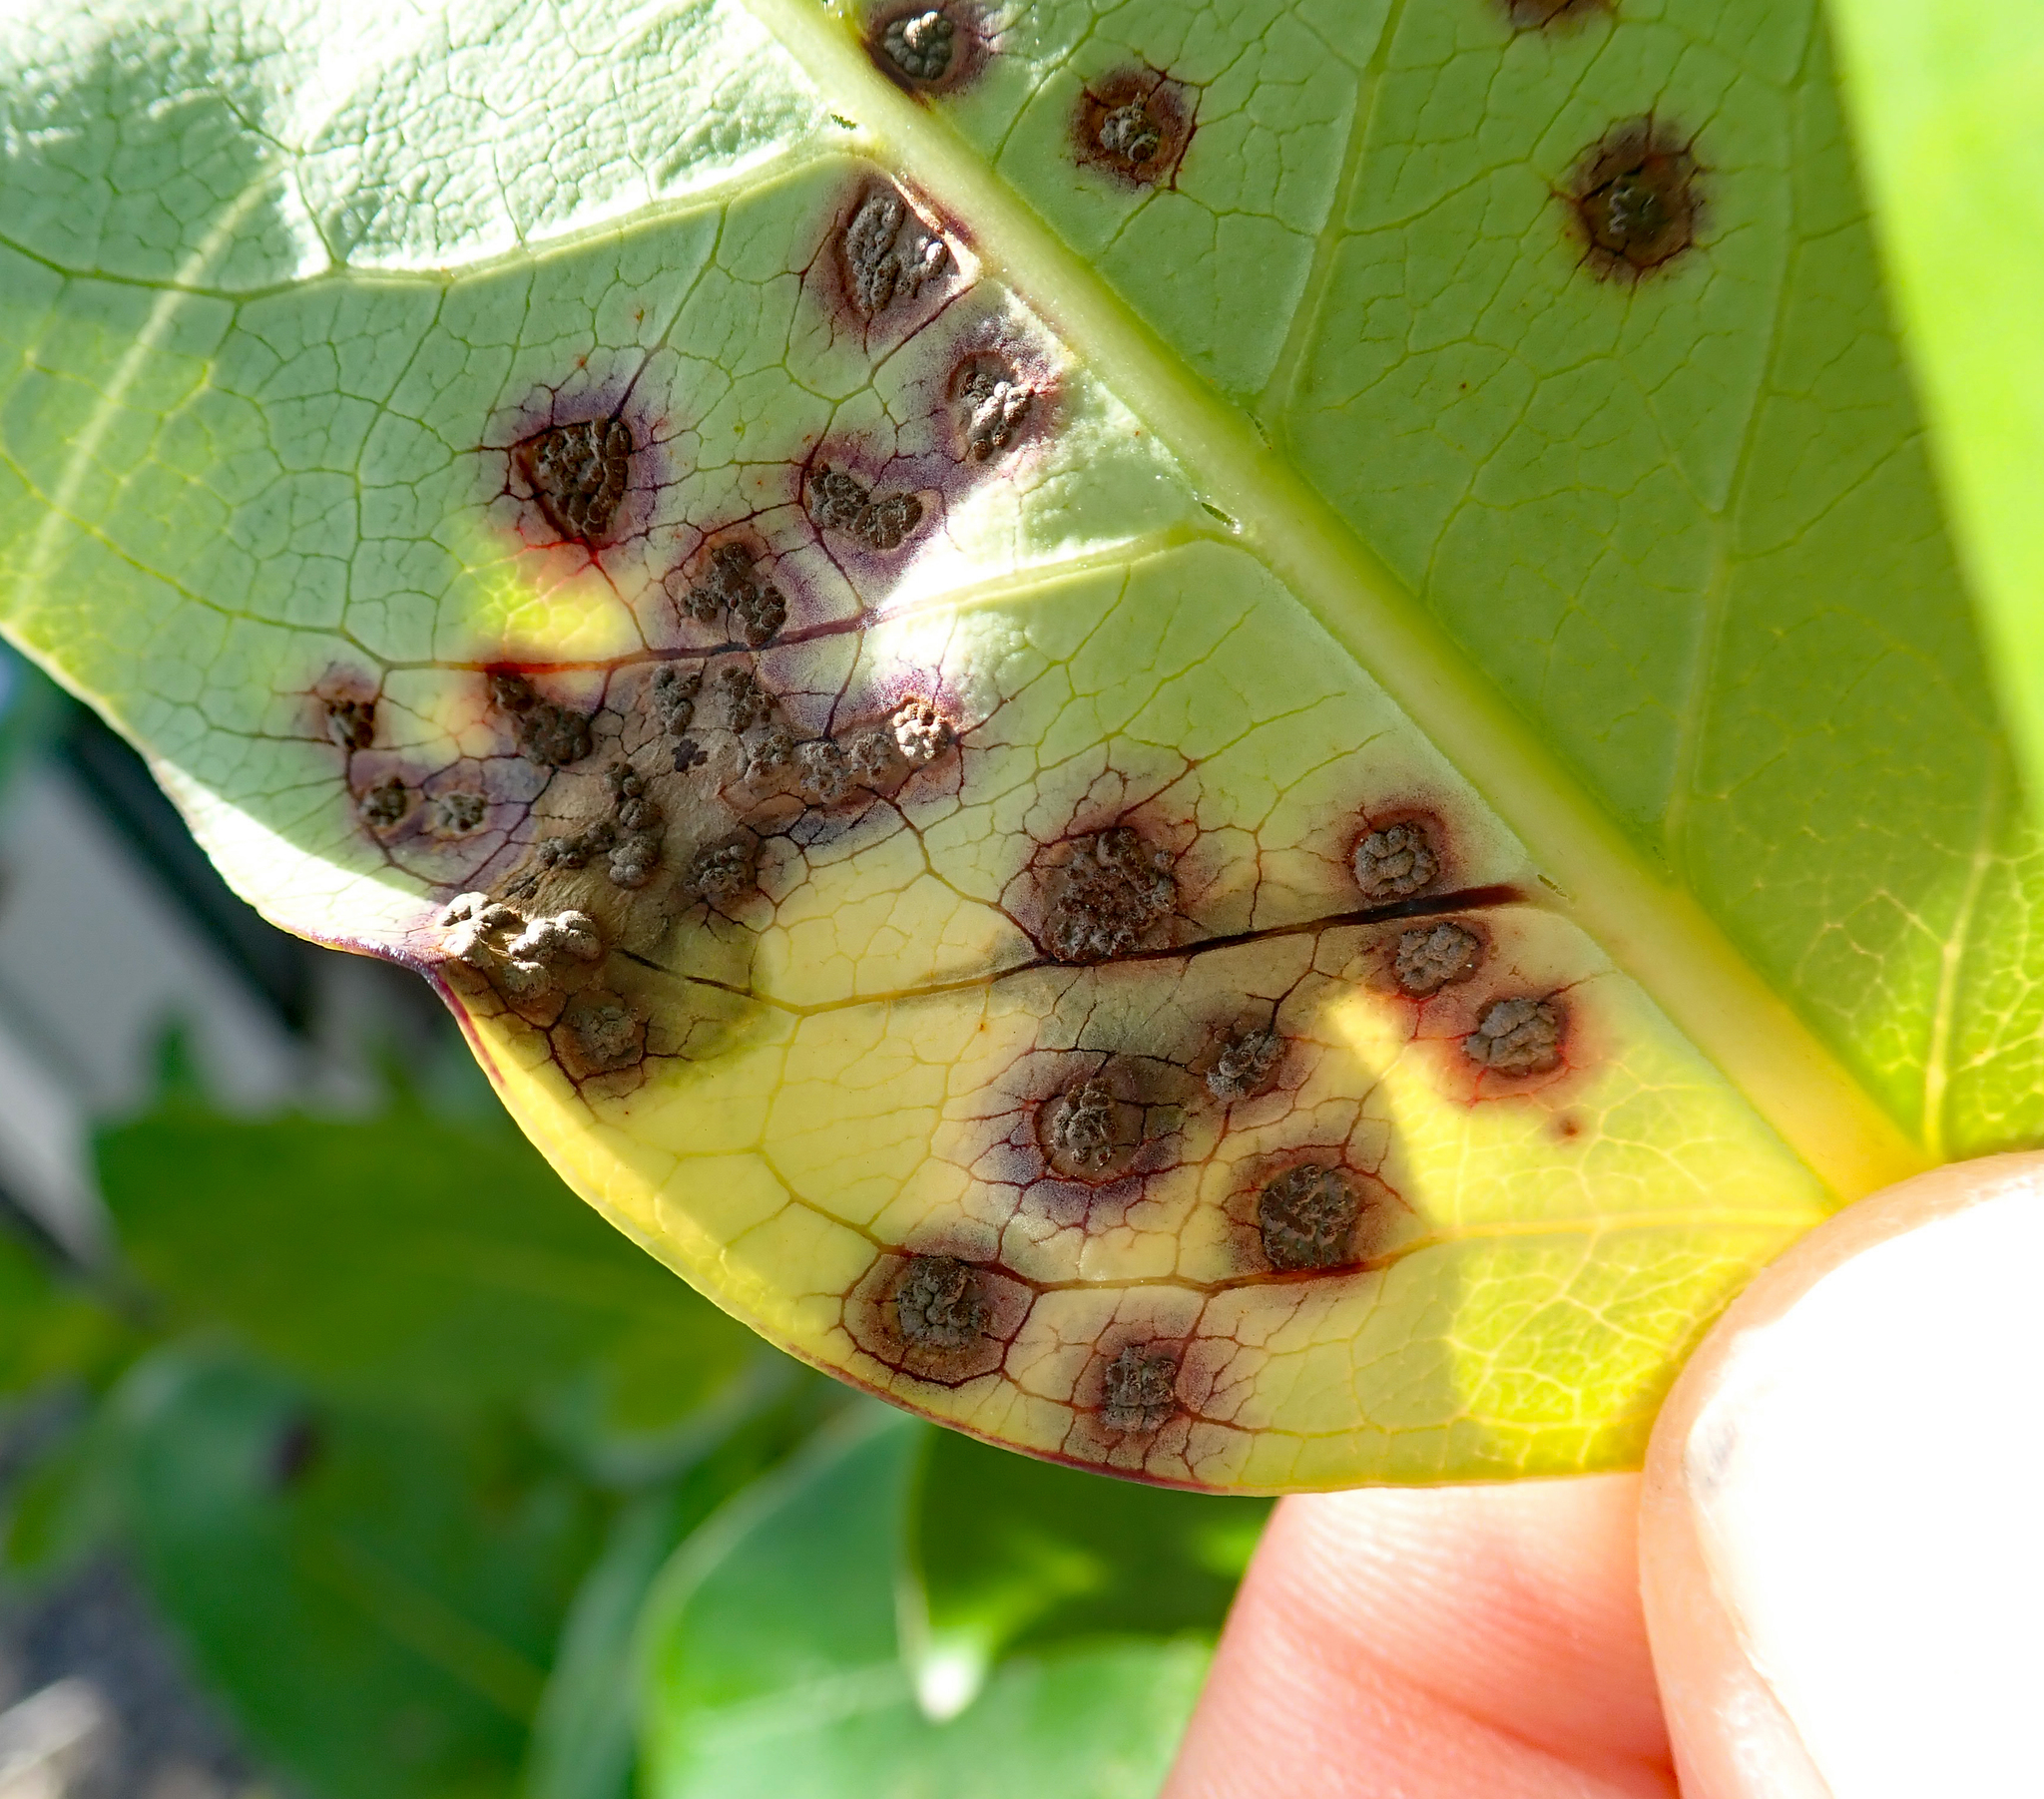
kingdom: Fungi
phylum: Basidiomycota
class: Pucciniomycetes
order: Pucciniales
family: Pucciniaceae
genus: Puccinia
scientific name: Puccinia coprosmae
